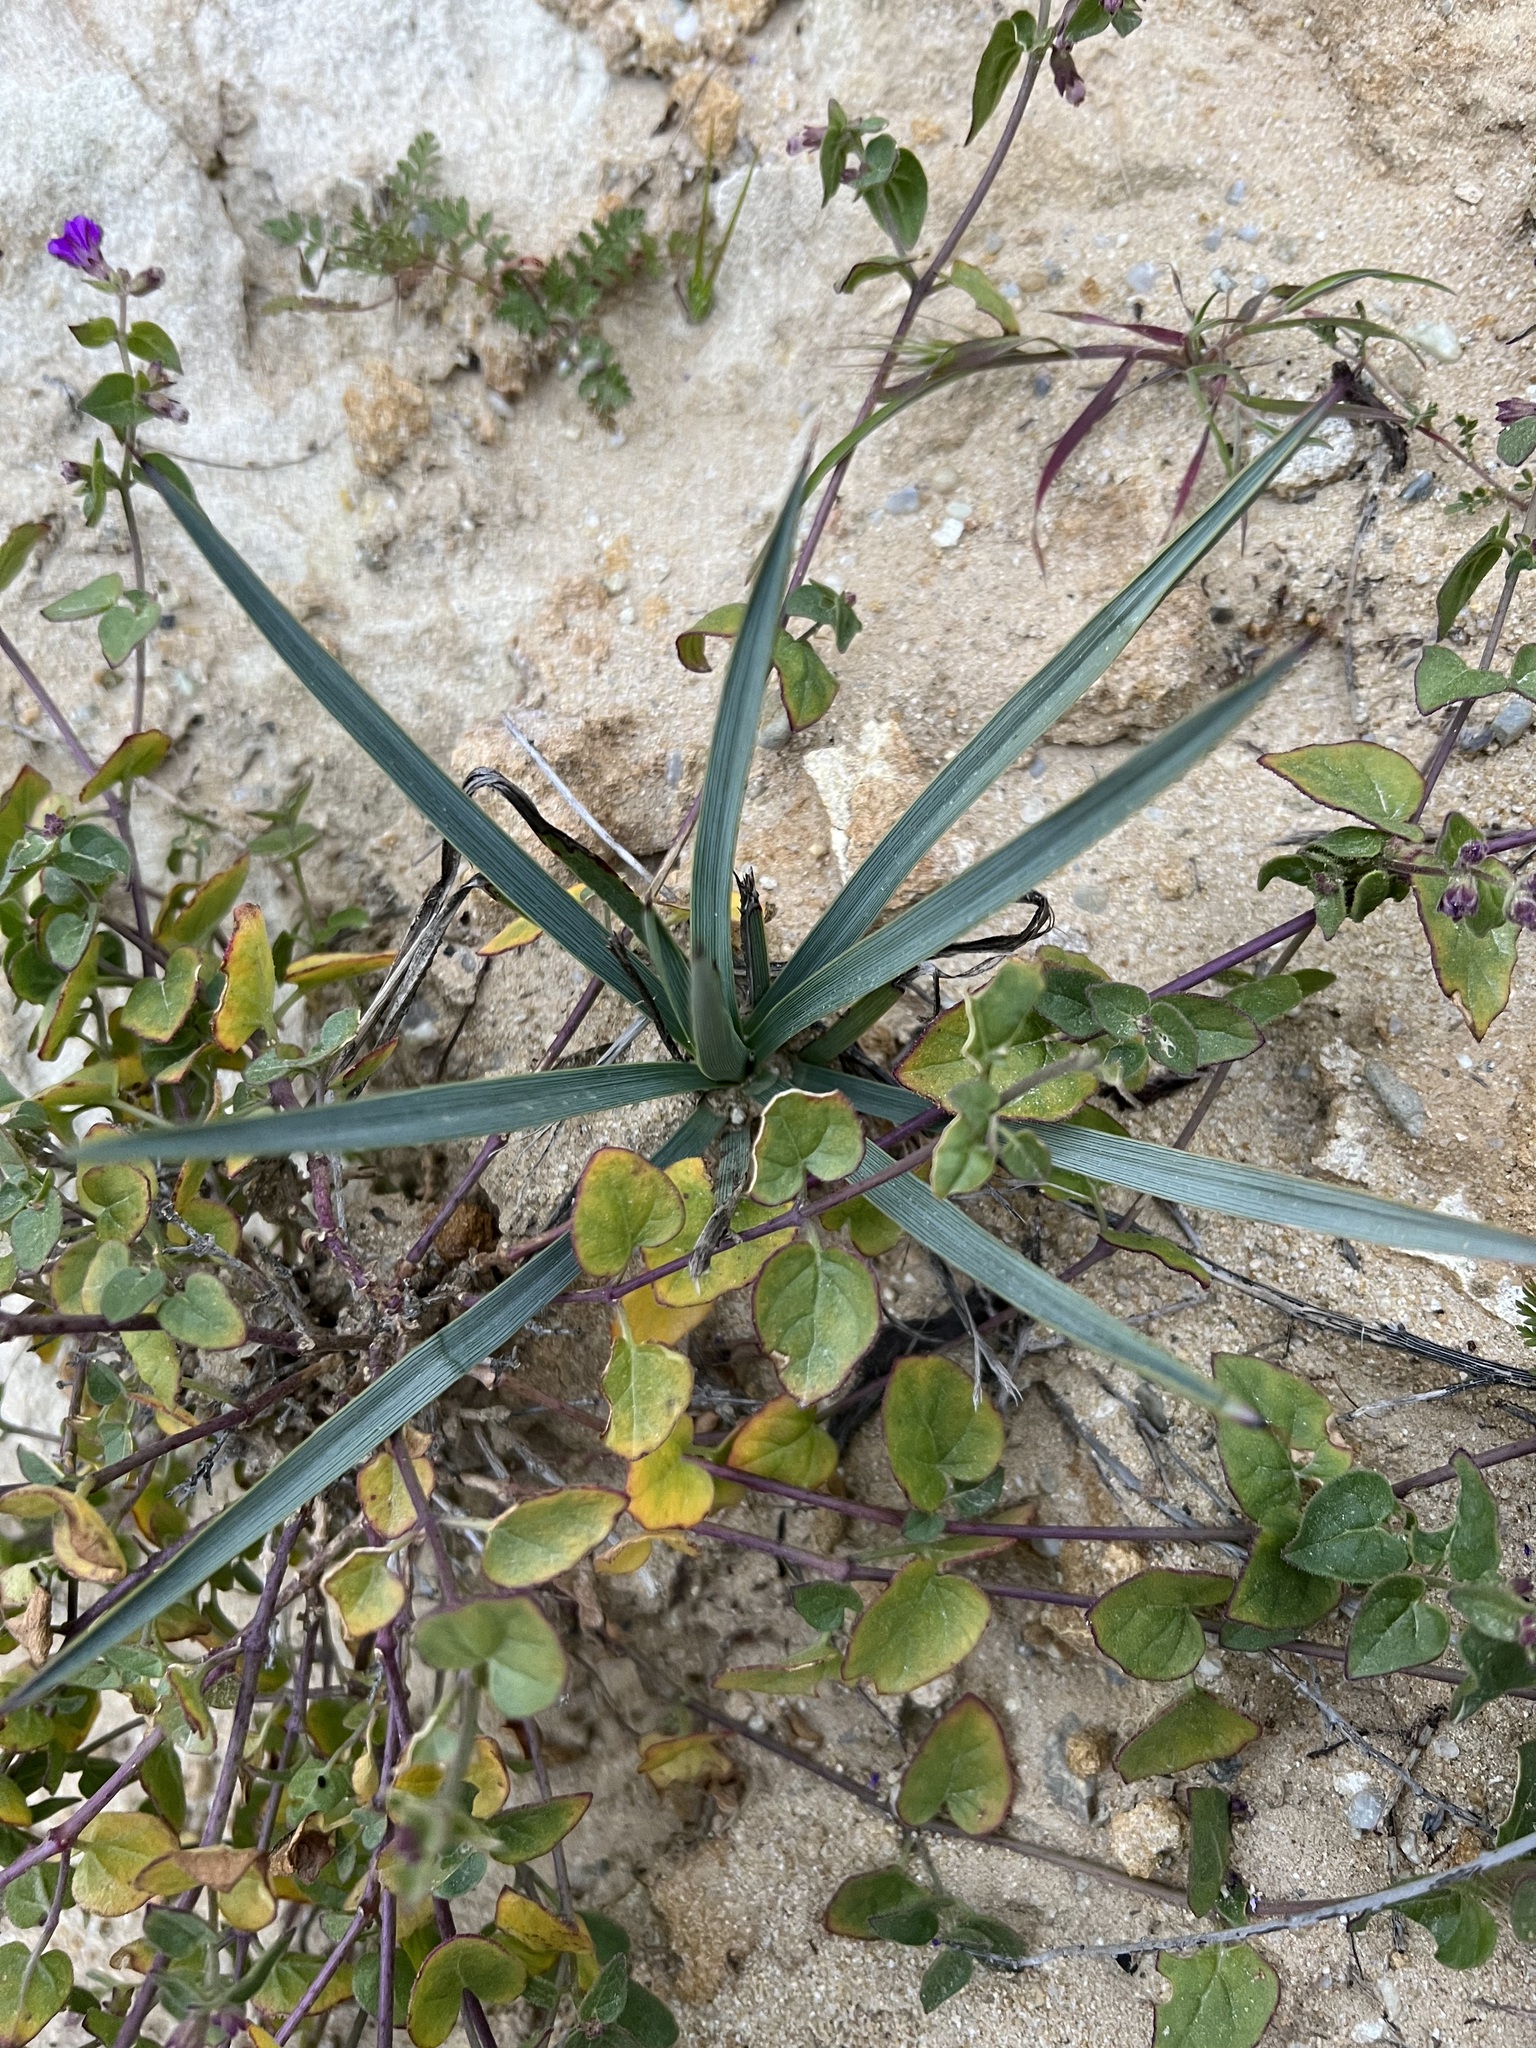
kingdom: Plantae
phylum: Tracheophyta
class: Liliopsida
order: Asparagales
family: Asparagaceae
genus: Hesperoyucca
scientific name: Hesperoyucca whipplei
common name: Our lord's-candle
